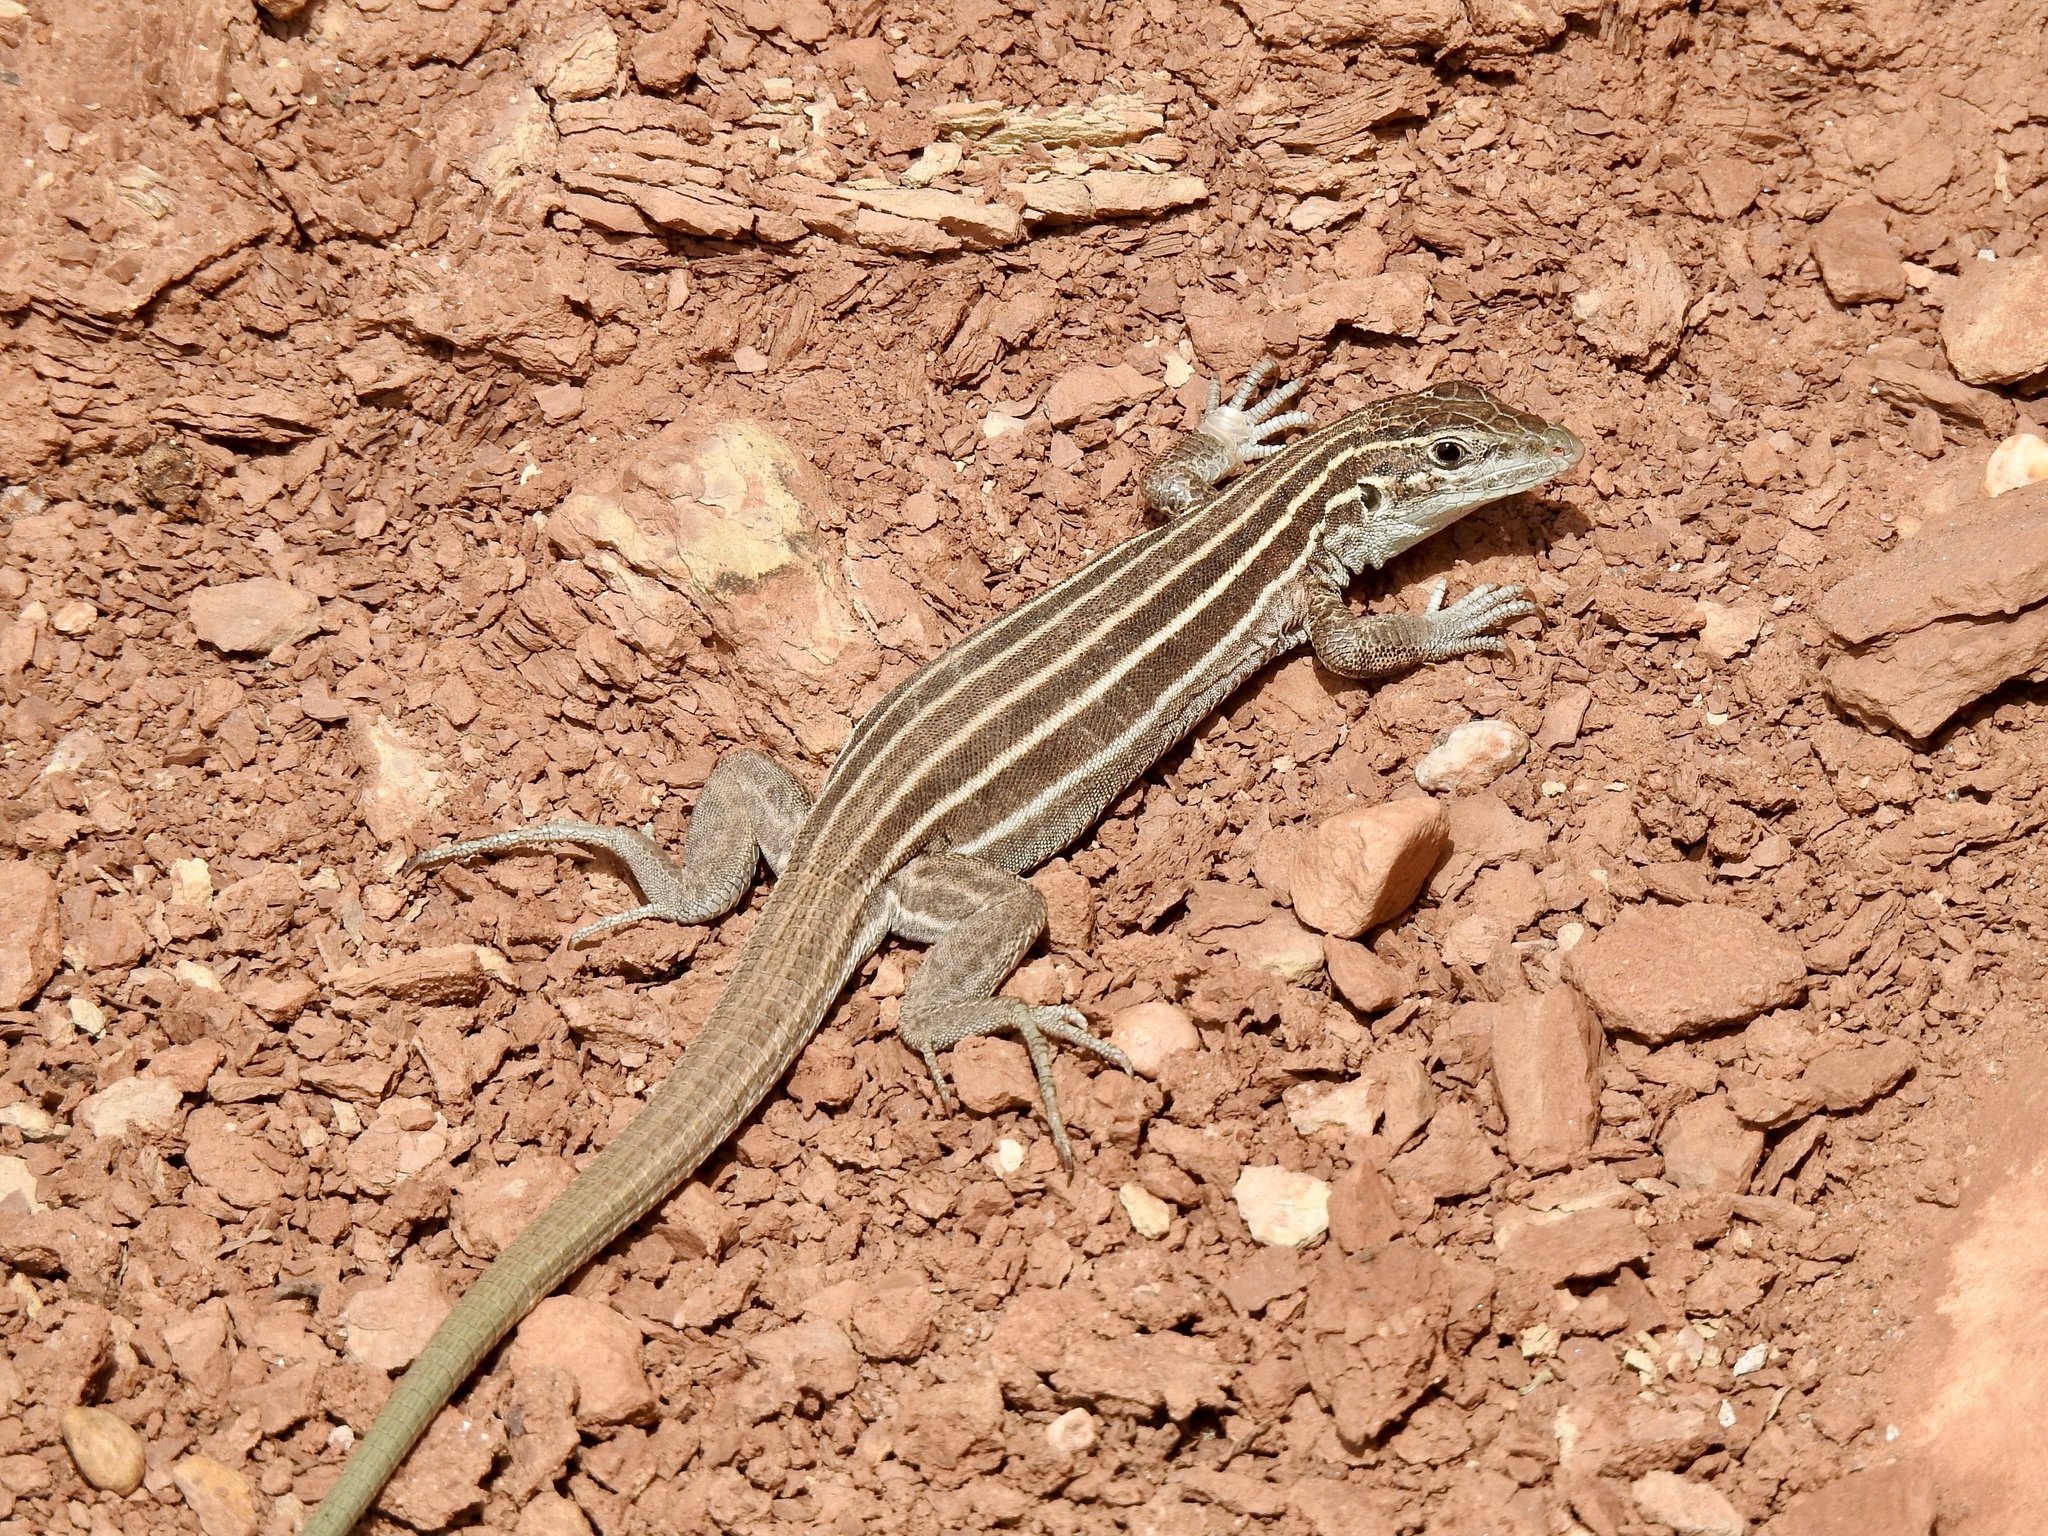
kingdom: Animalia
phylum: Chordata
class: Squamata
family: Teiidae
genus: Aspidoscelis
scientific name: Aspidoscelis velox
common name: Plateau striped whiptail
